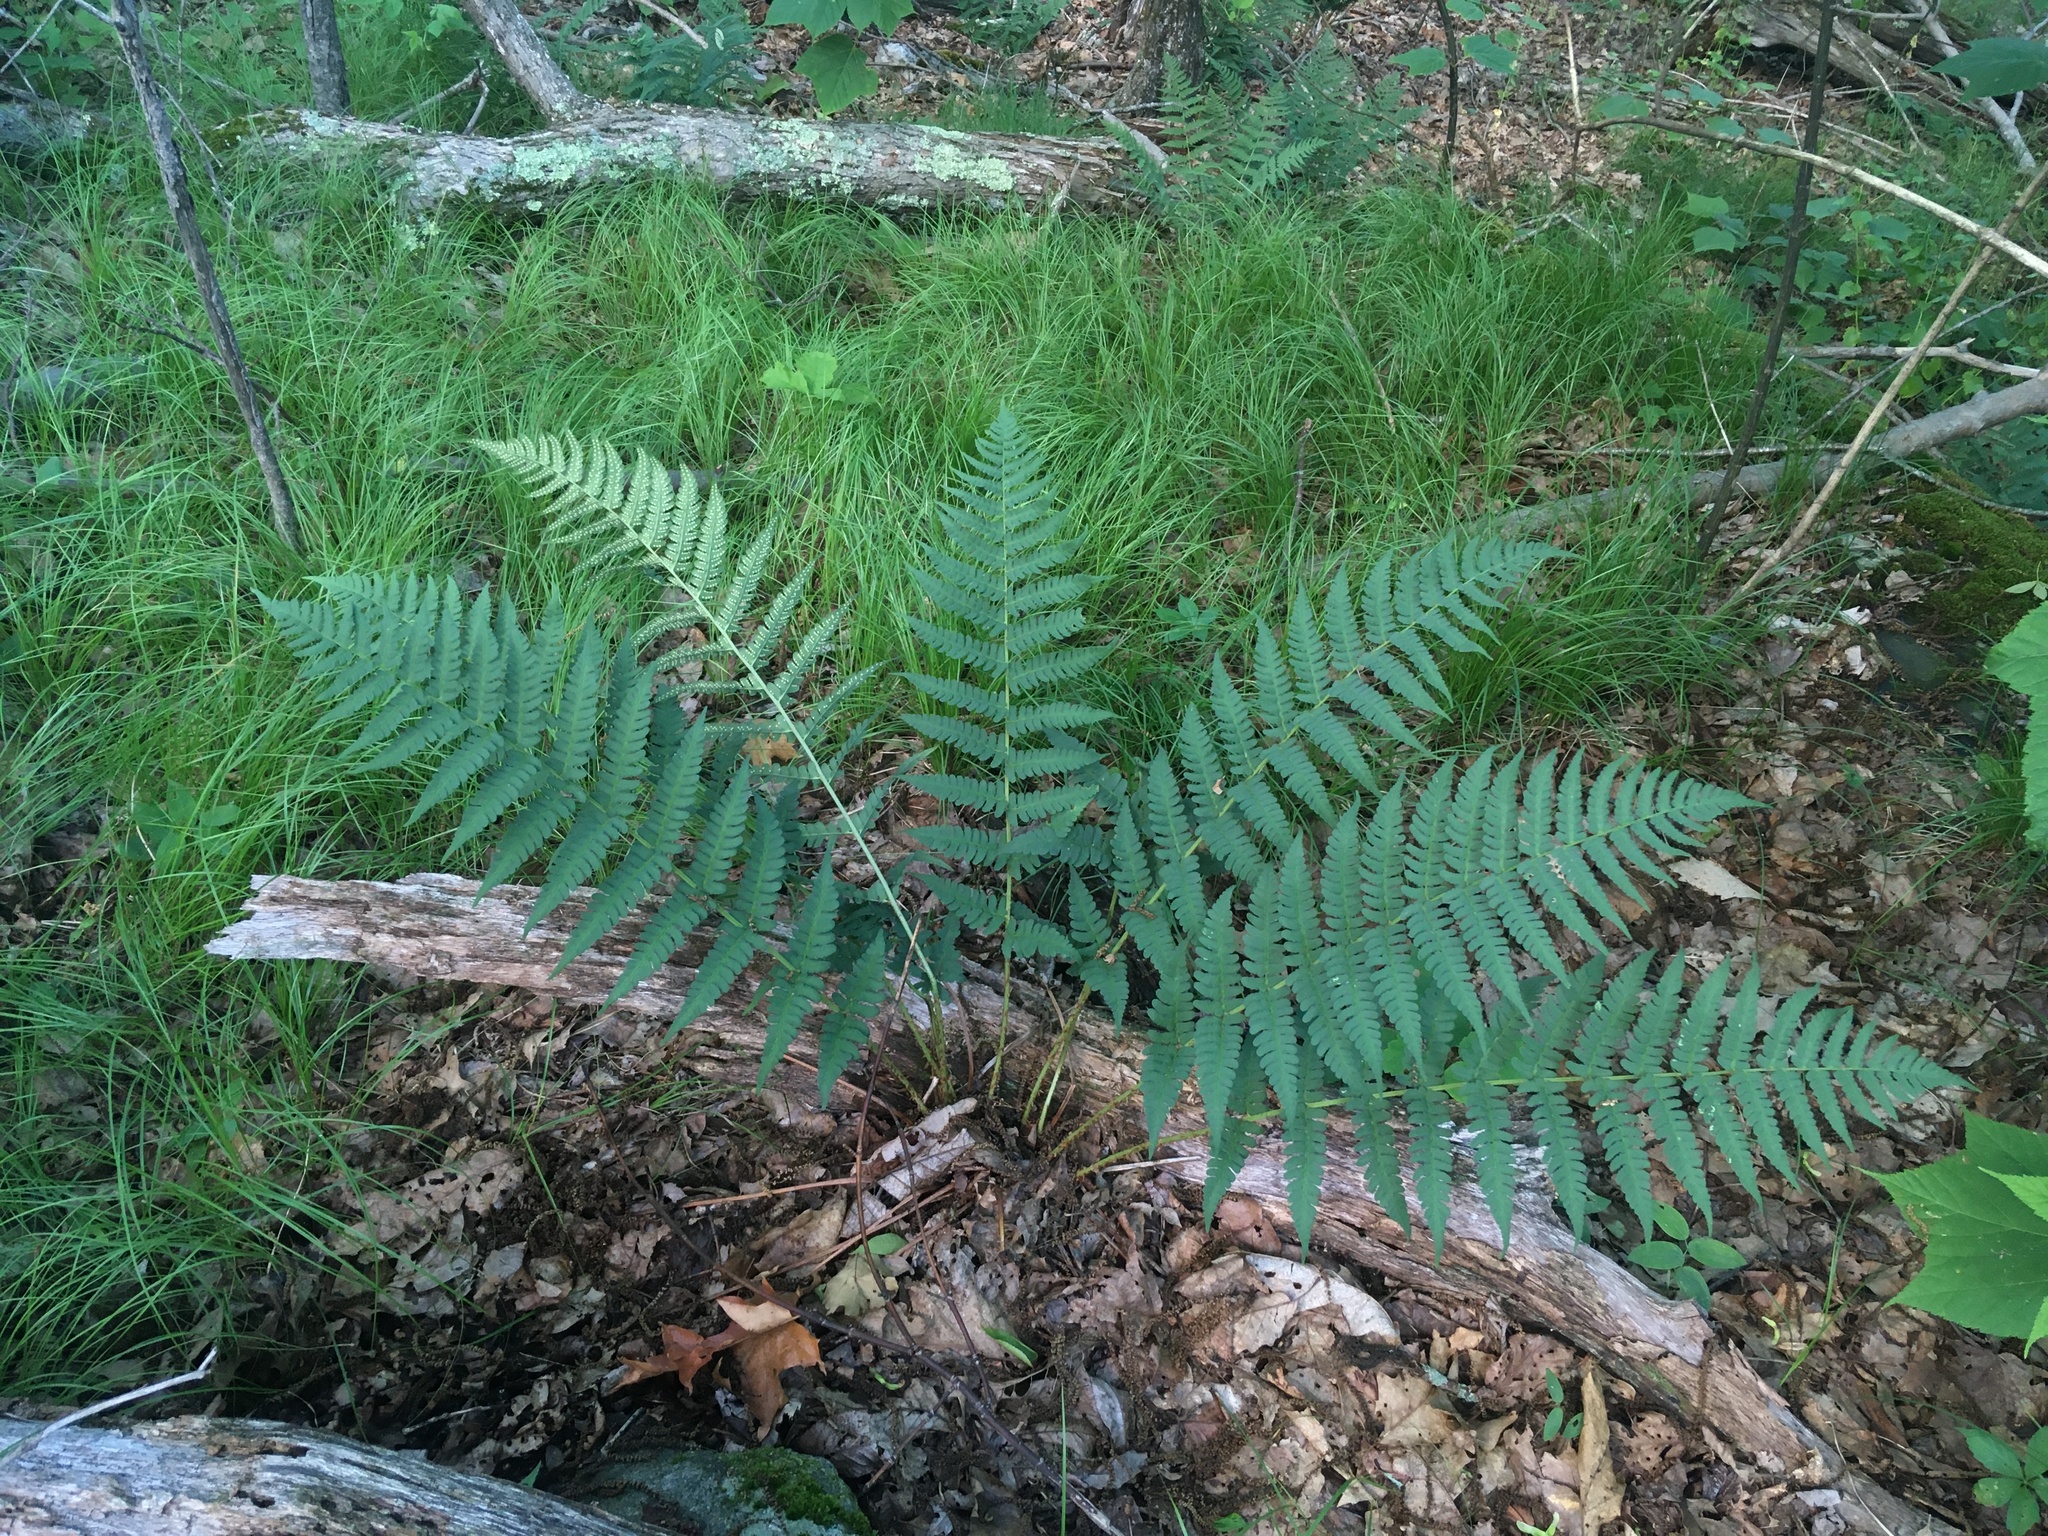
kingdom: Plantae
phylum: Tracheophyta
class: Polypodiopsida
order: Polypodiales
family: Dryopteridaceae
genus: Dryopteris
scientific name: Dryopteris marginalis
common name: Marginal wood fern
